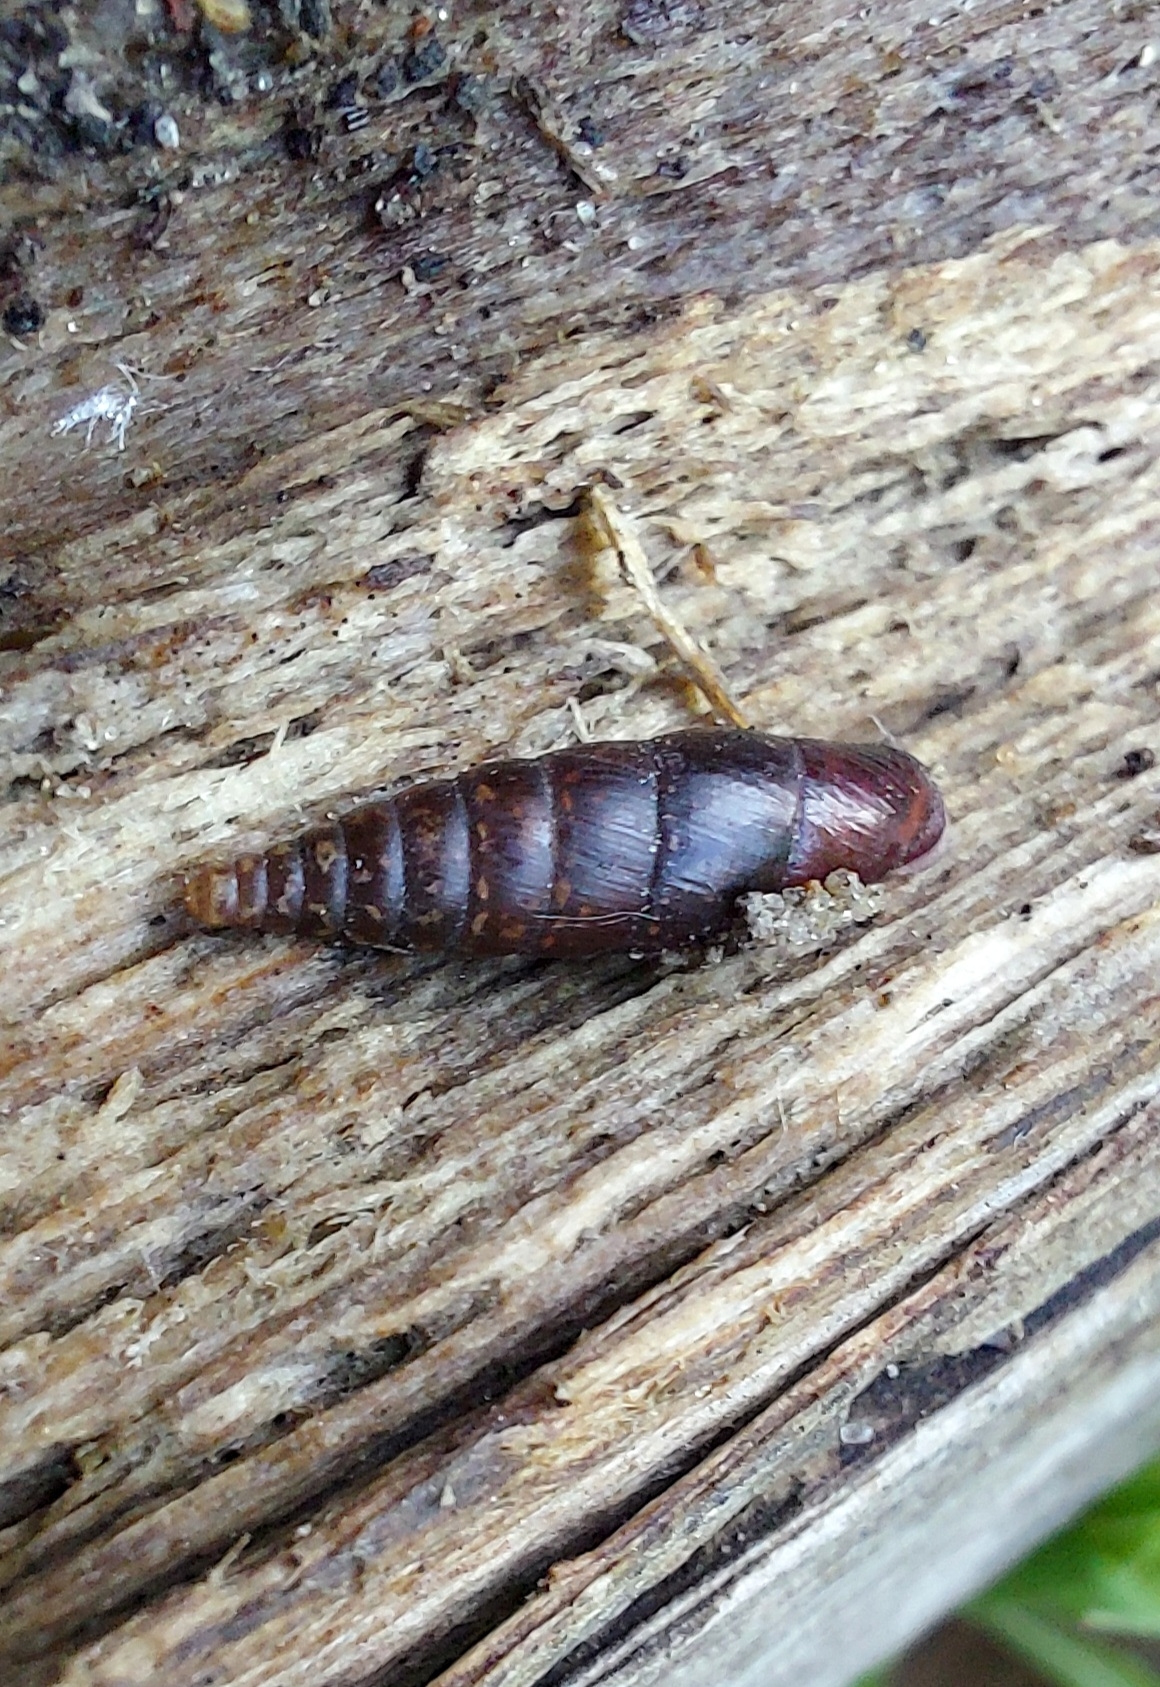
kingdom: Animalia
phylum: Mollusca
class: Gastropoda
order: Stylommatophora
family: Clausiliidae
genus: Cochlodina
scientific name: Cochlodina laminata
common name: Plaited door snail
